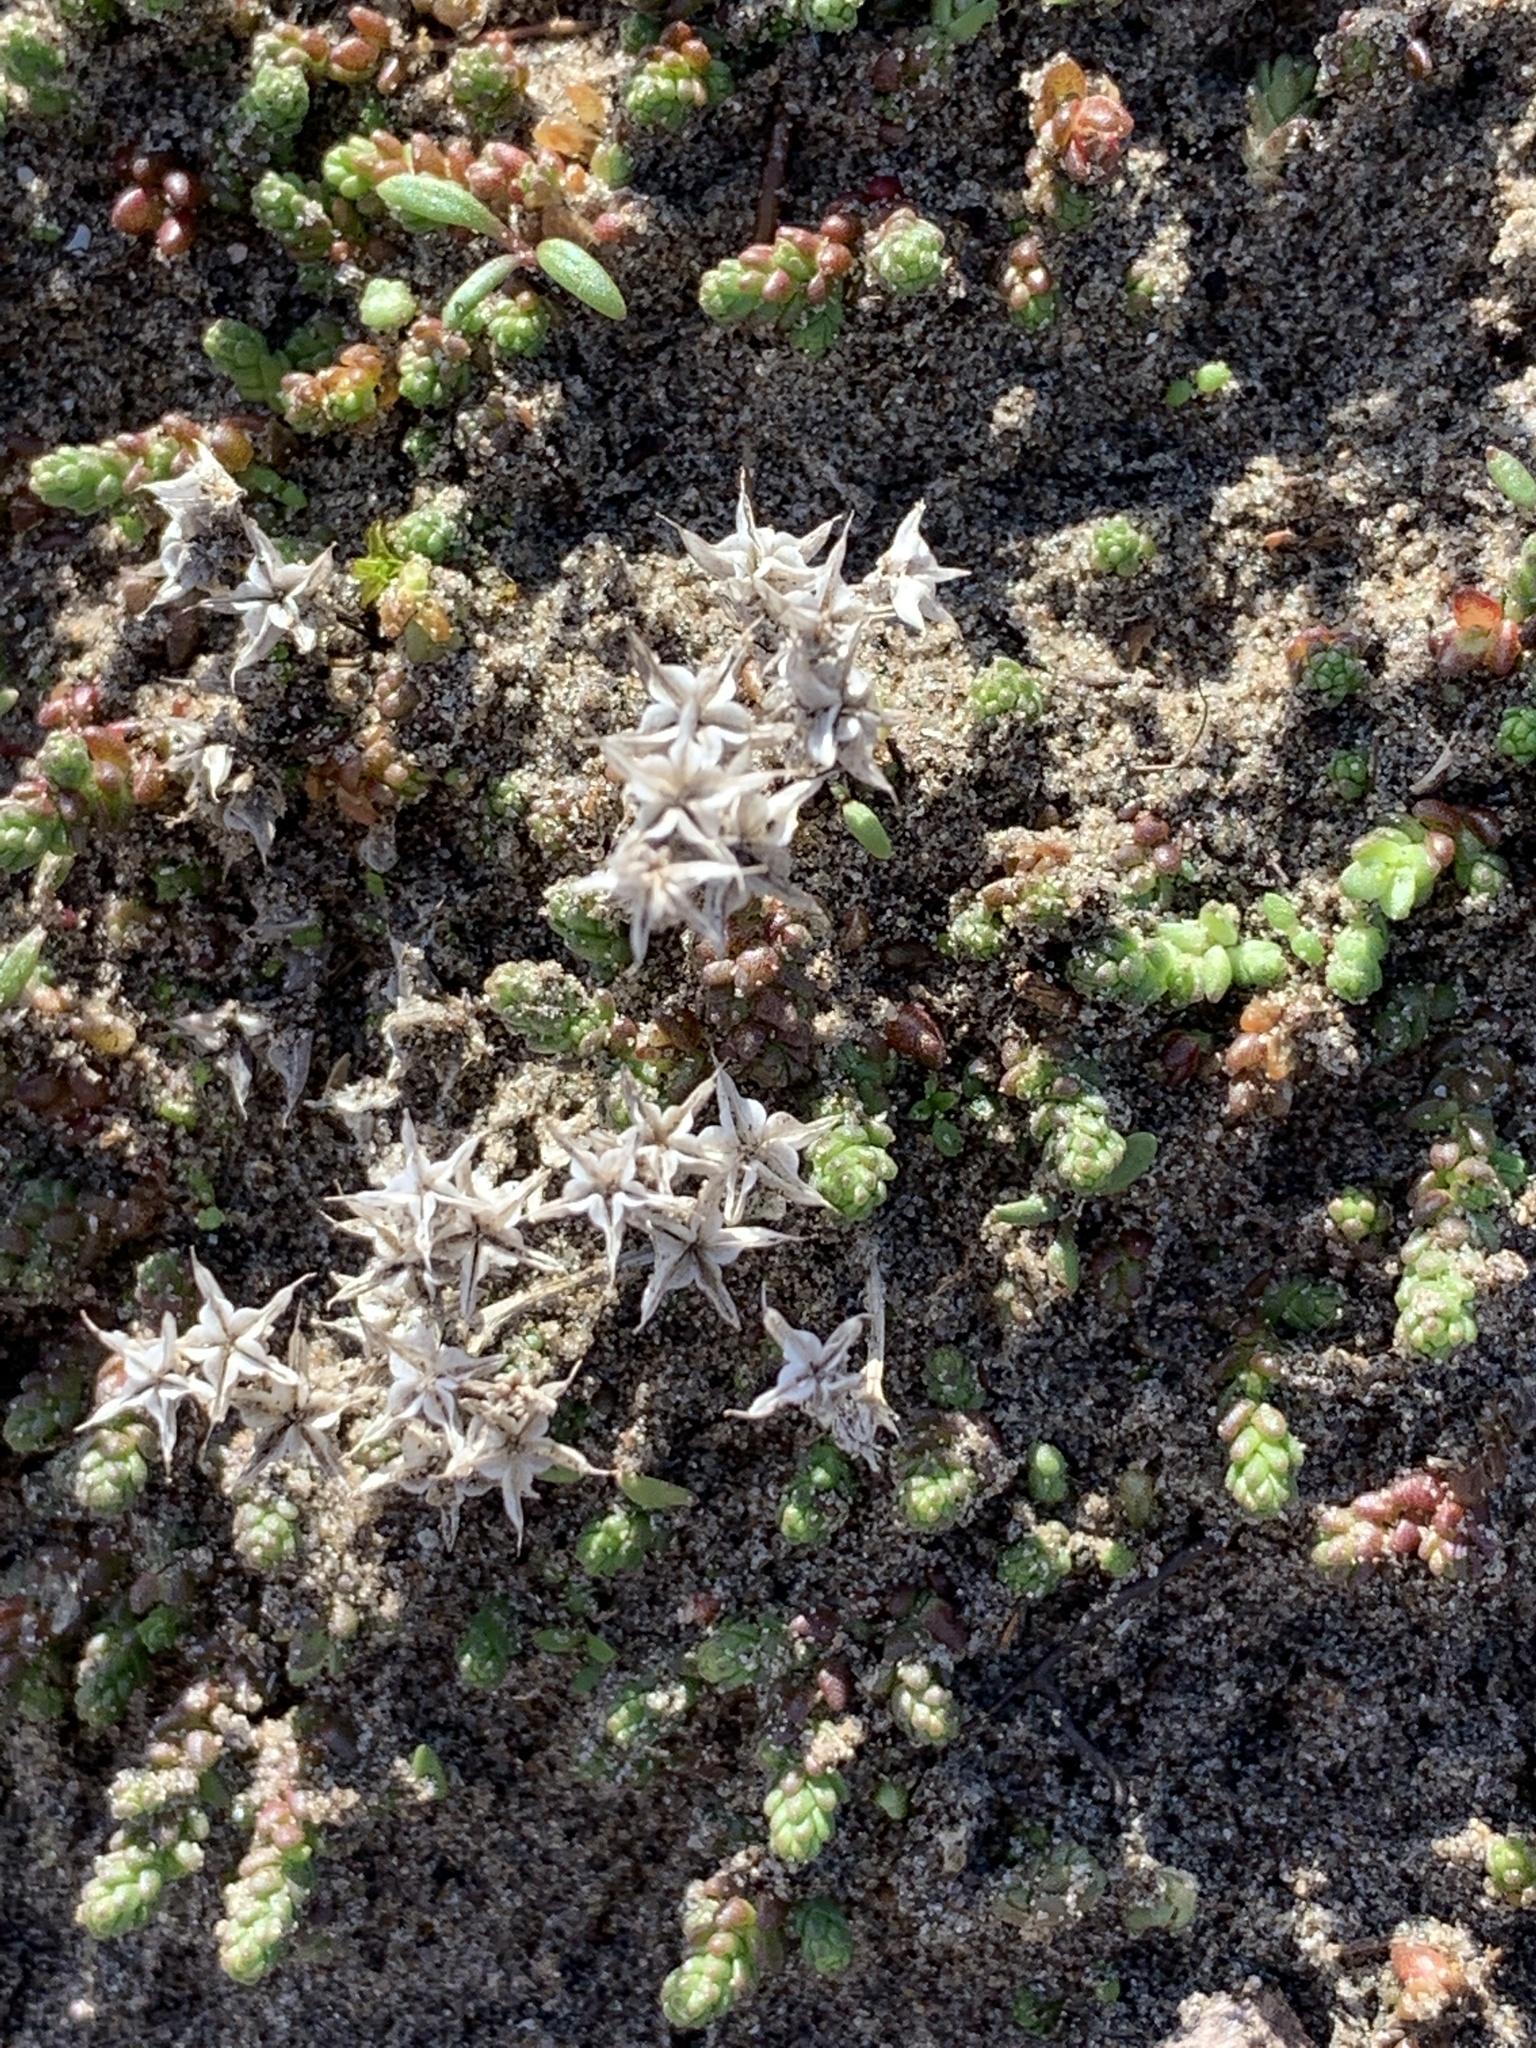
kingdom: Plantae
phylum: Tracheophyta
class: Magnoliopsida
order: Saxifragales
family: Crassulaceae
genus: Sedum
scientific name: Sedum acre
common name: Biting stonecrop
